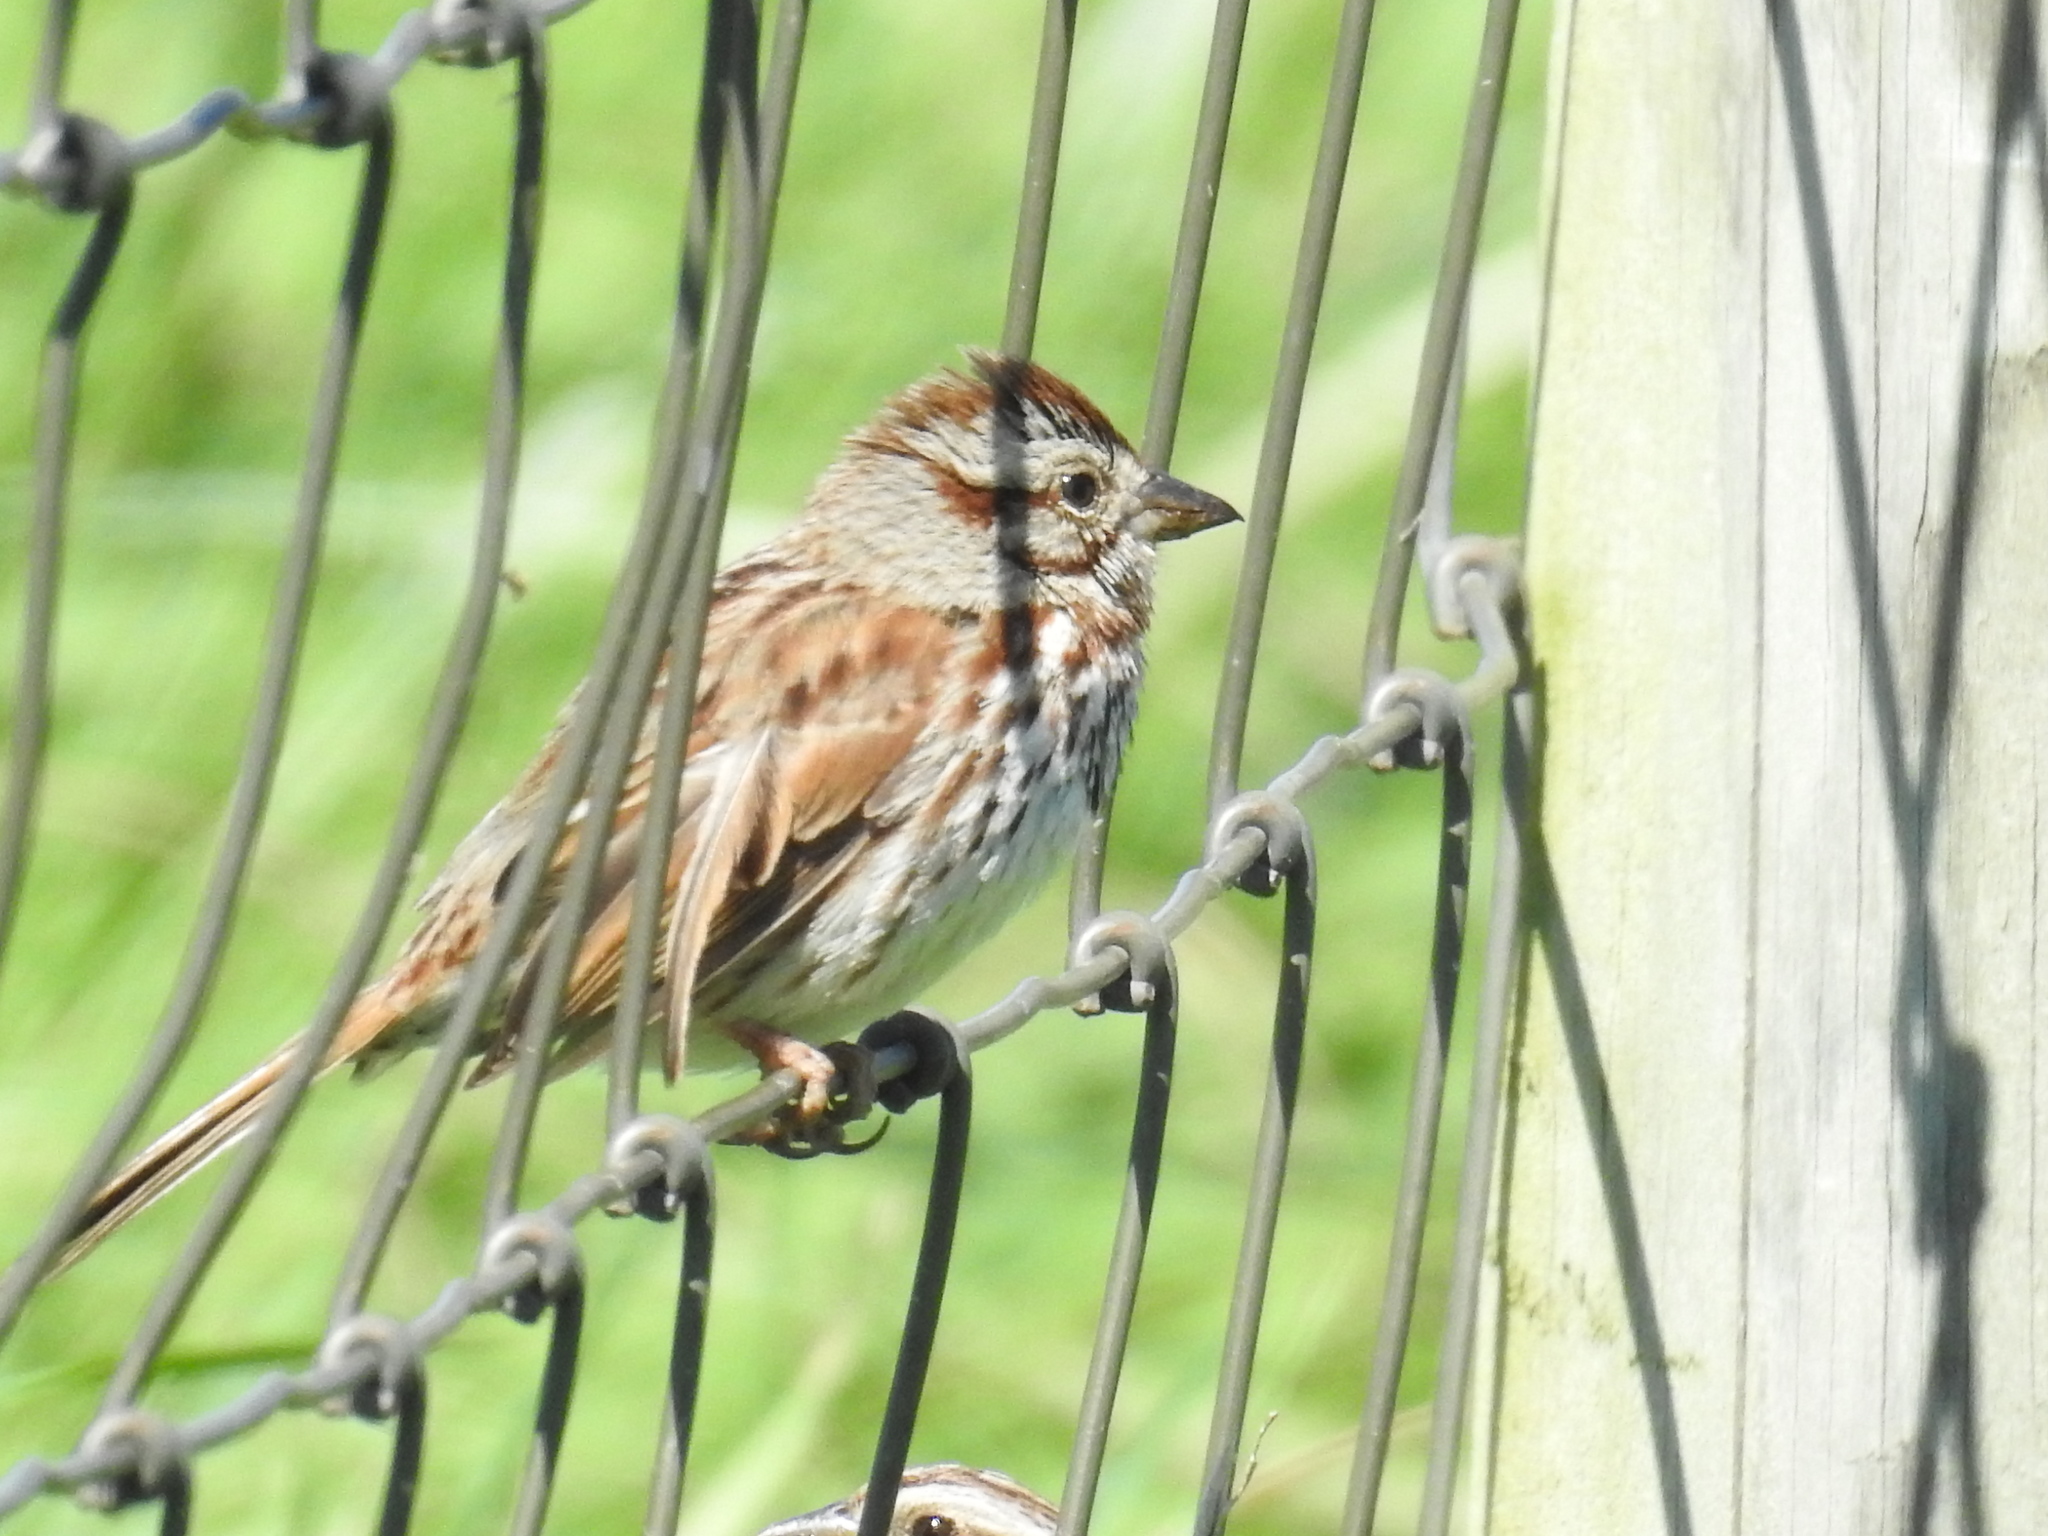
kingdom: Animalia
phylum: Chordata
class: Aves
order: Passeriformes
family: Passerellidae
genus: Melospiza
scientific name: Melospiza melodia
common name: Song sparrow
